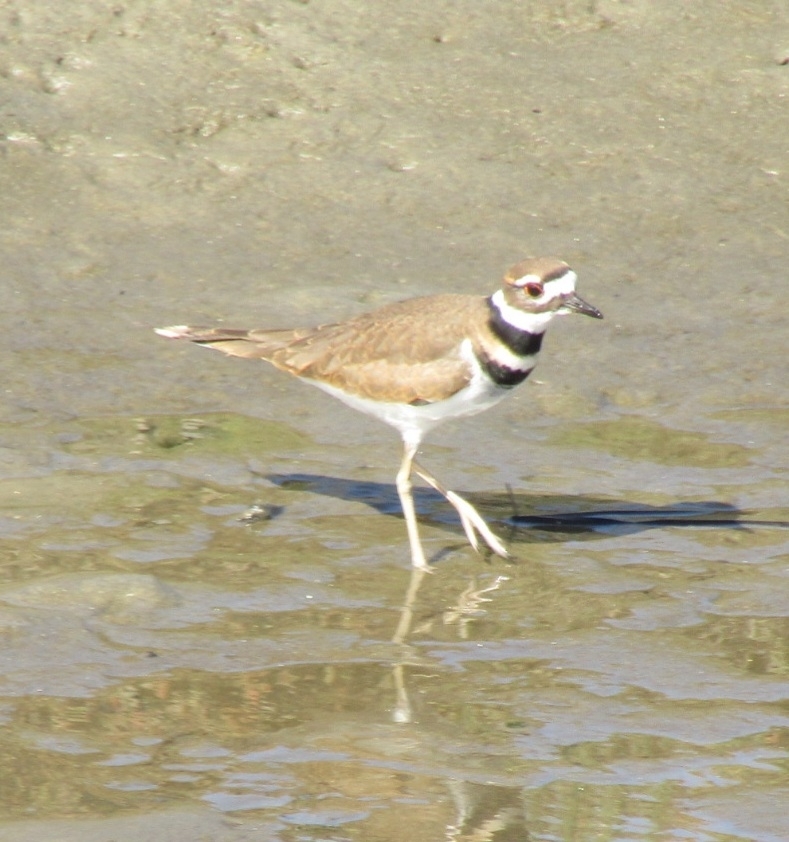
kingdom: Animalia
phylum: Chordata
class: Aves
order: Charadriiformes
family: Charadriidae
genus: Charadrius
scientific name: Charadrius vociferus
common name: Killdeer
